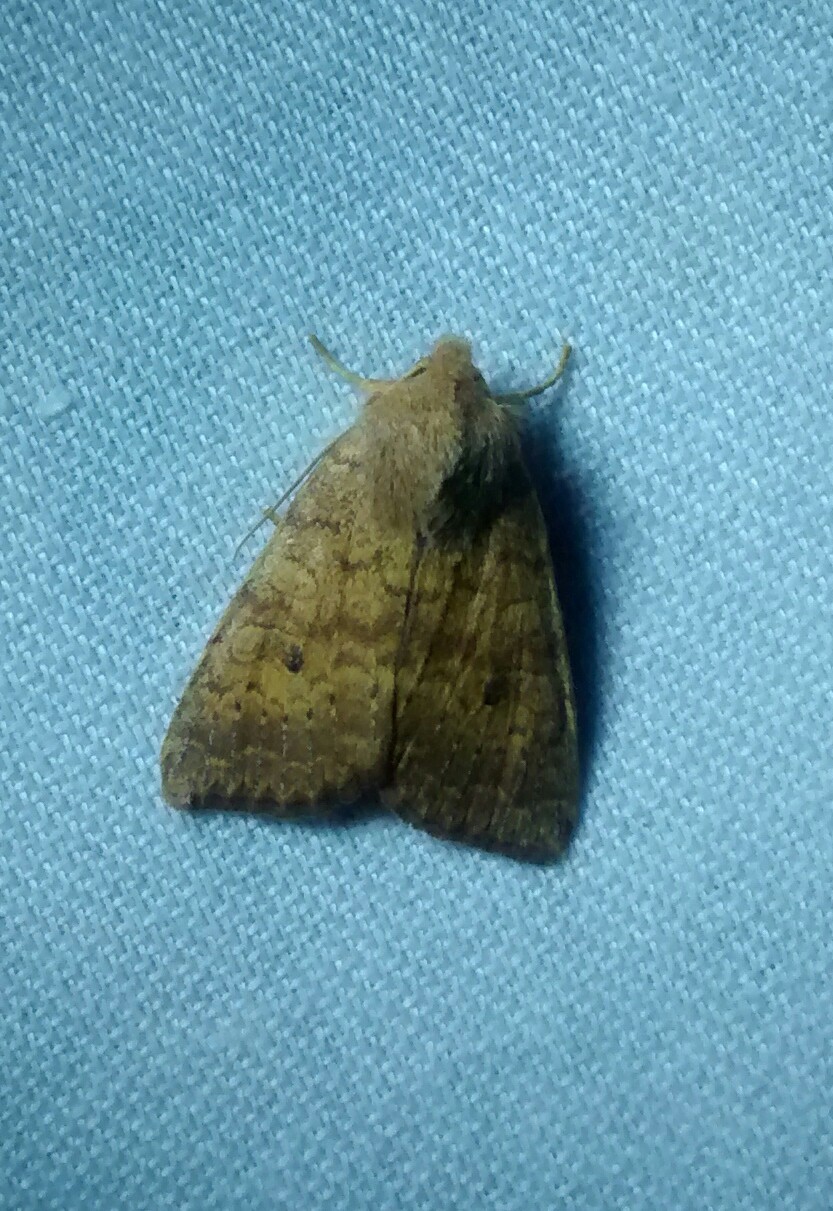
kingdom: Animalia
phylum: Arthropoda
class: Insecta
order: Lepidoptera
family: Noctuidae
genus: Agrochola
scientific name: Agrochola bicolorago
